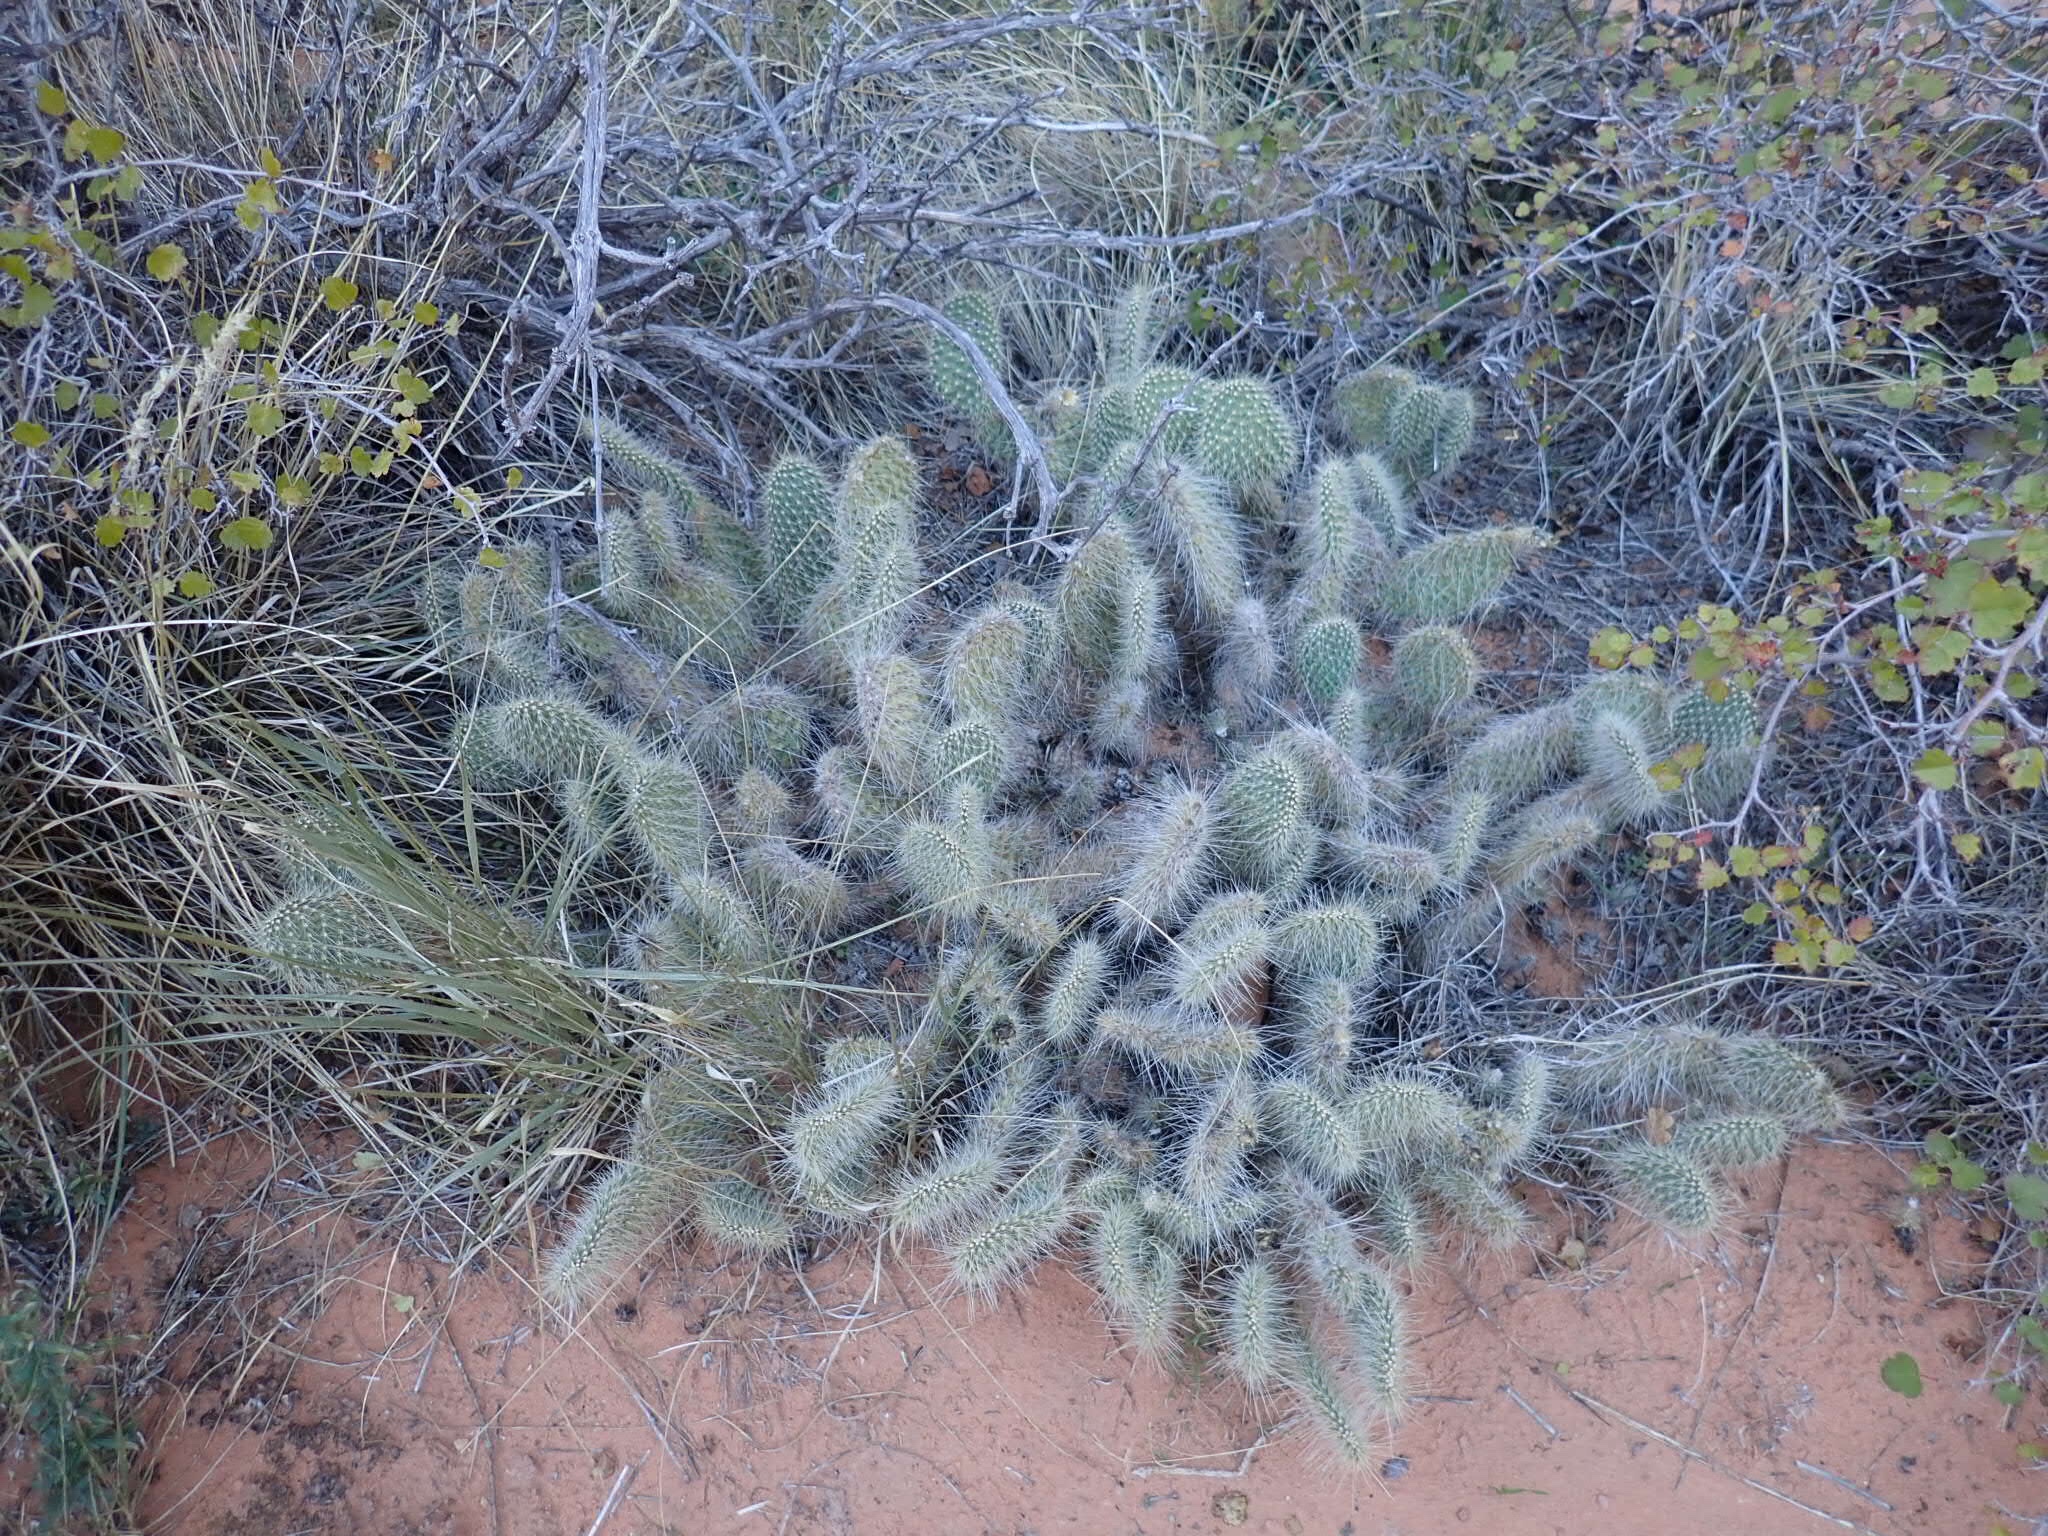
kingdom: Plantae
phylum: Tracheophyta
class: Magnoliopsida
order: Caryophyllales
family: Cactaceae
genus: Opuntia
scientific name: Opuntia polyacantha
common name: Plains prickly-pear
